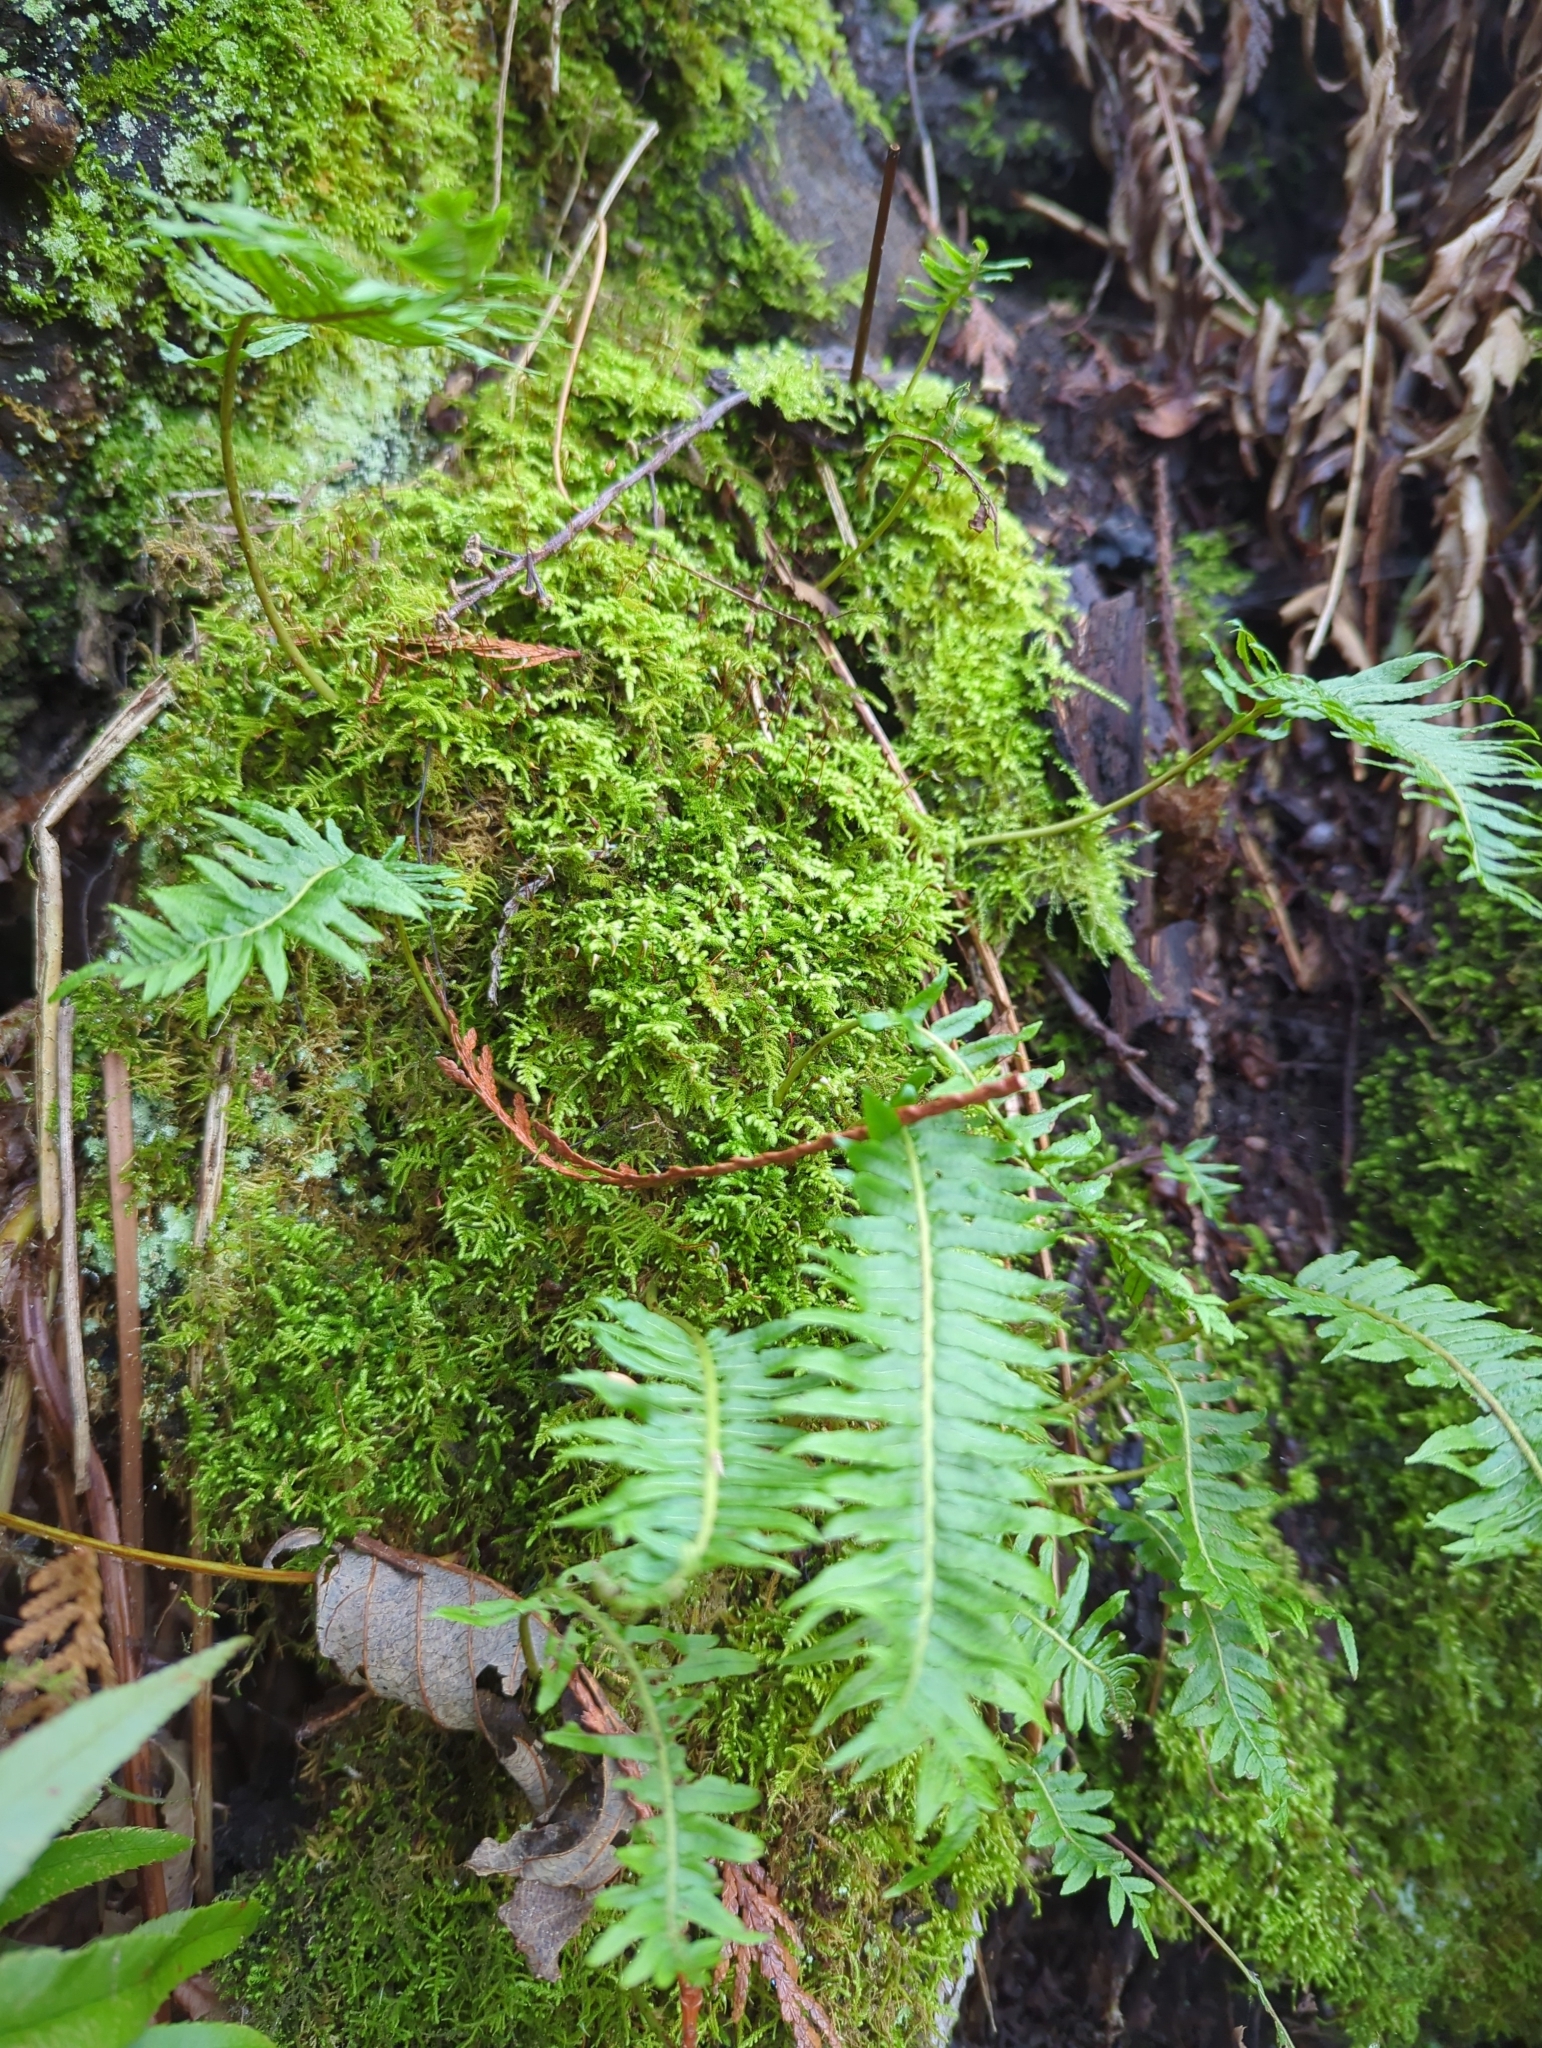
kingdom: Plantae
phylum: Tracheophyta
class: Polypodiopsida
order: Polypodiales
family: Polypodiaceae
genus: Polypodium
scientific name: Polypodium glycyrrhiza
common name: Licorice fern
